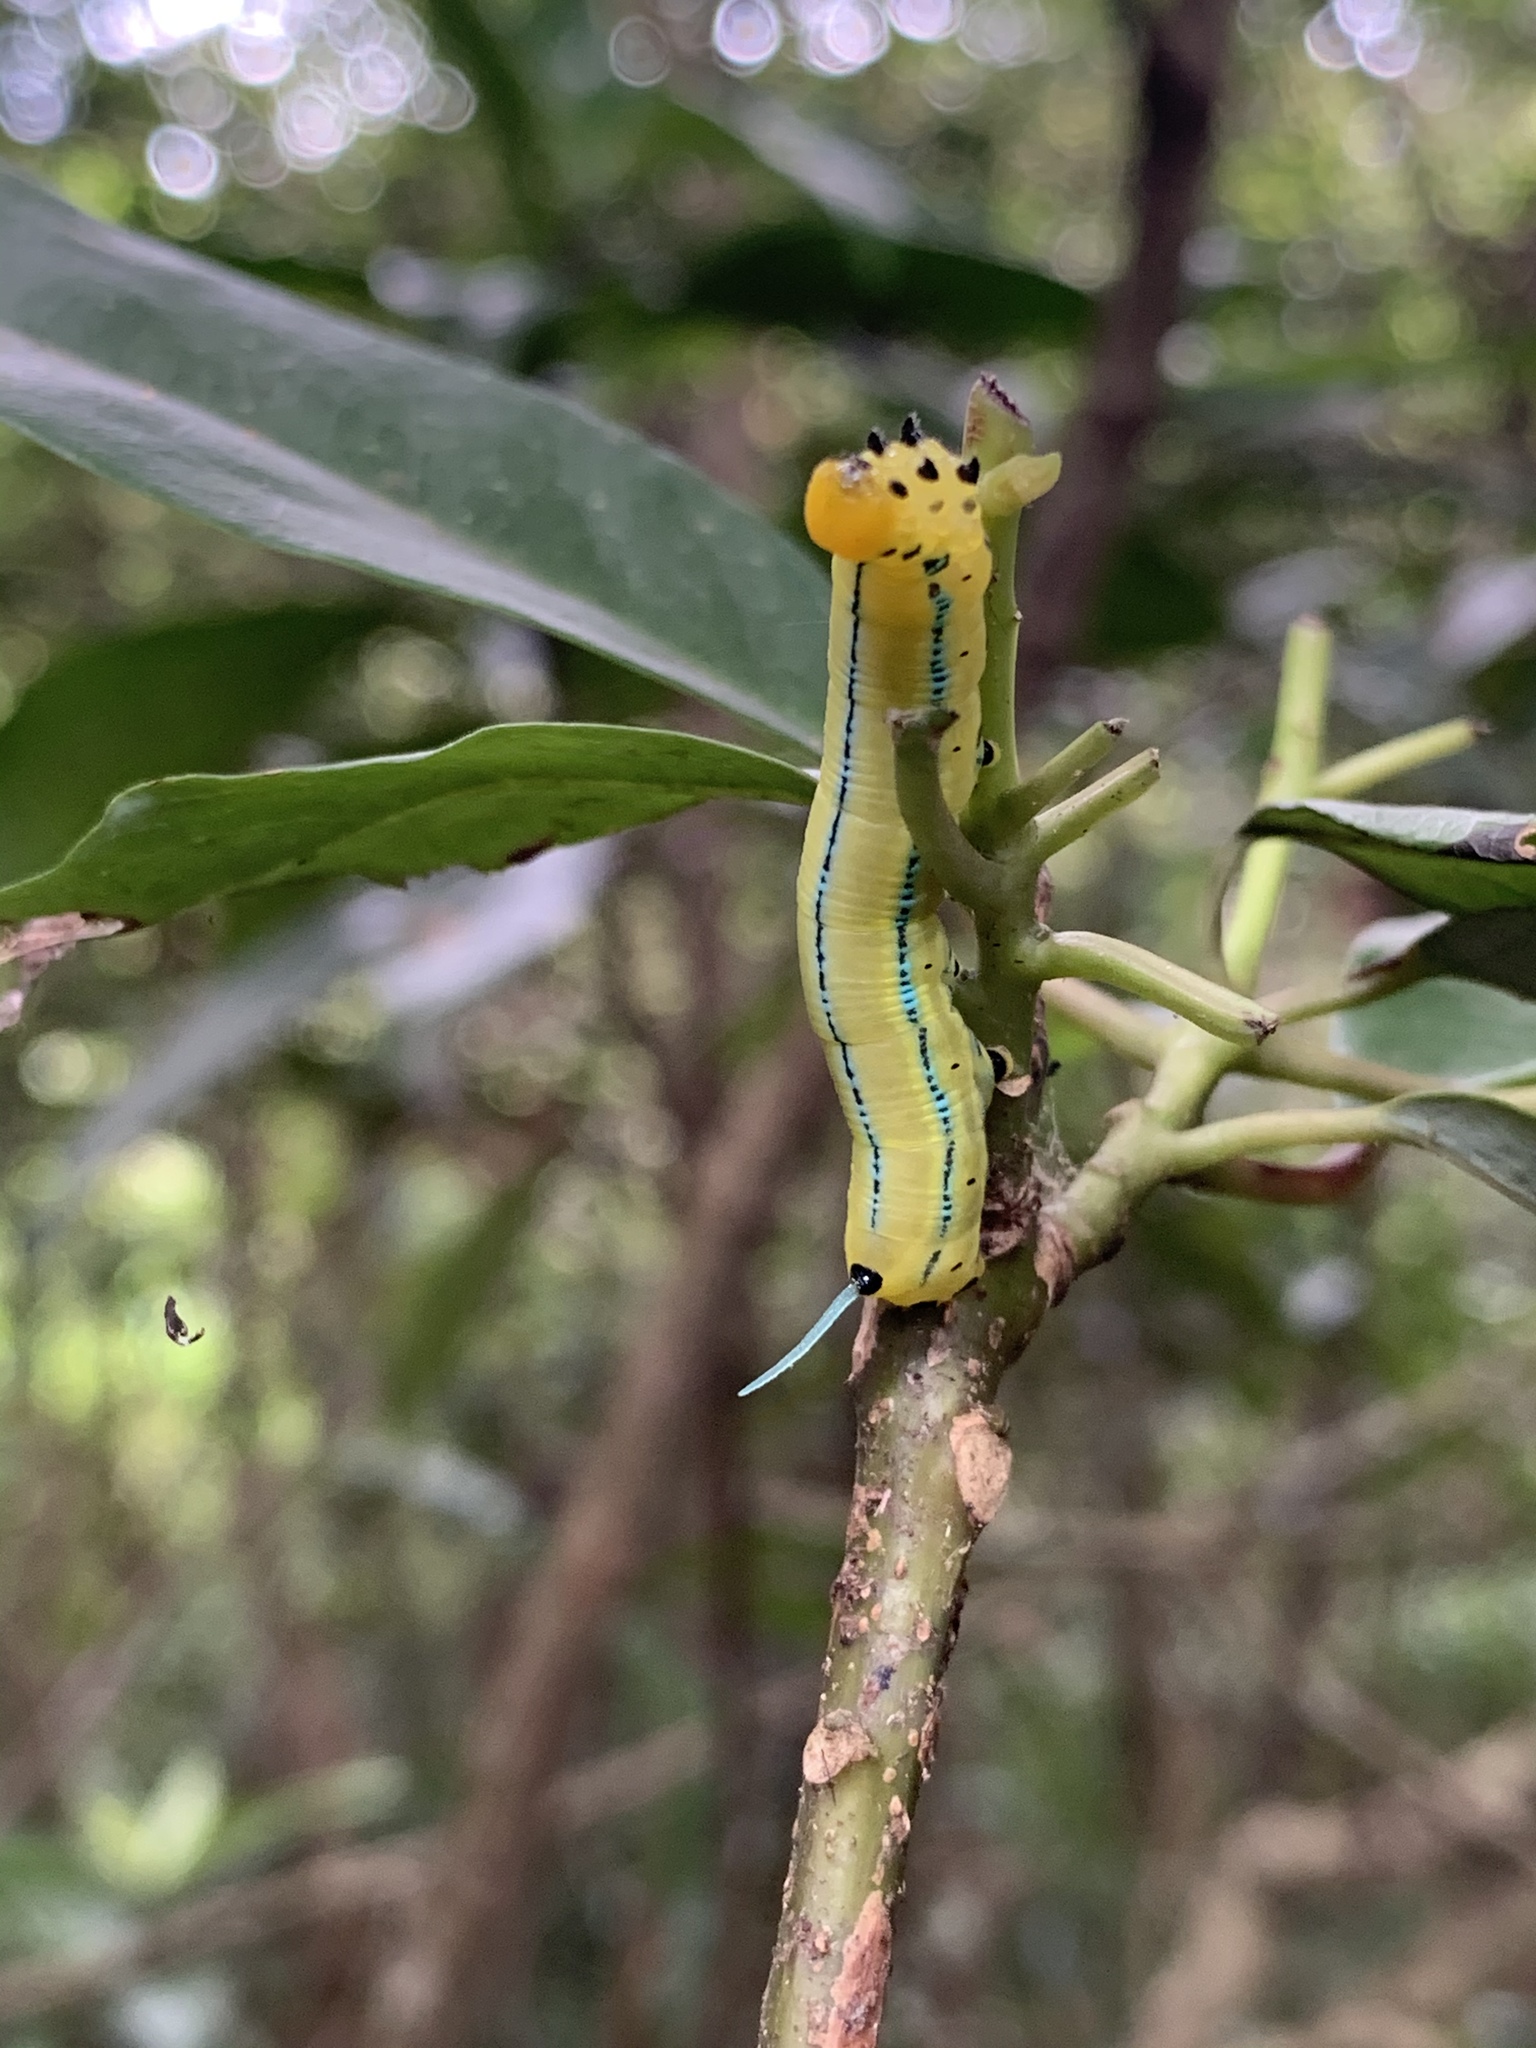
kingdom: Animalia
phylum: Arthropoda
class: Insecta
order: Lepidoptera
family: Sphingidae
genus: Macroglossum
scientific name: Macroglossum passalus
